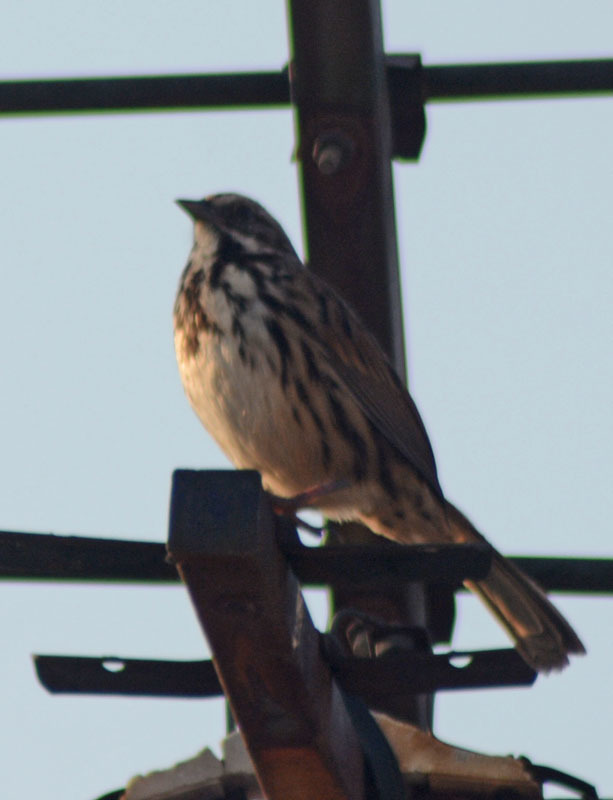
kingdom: Animalia
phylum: Chordata
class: Aves
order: Passeriformes
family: Passerellidae
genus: Melospiza
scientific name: Melospiza melodia
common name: Song sparrow
